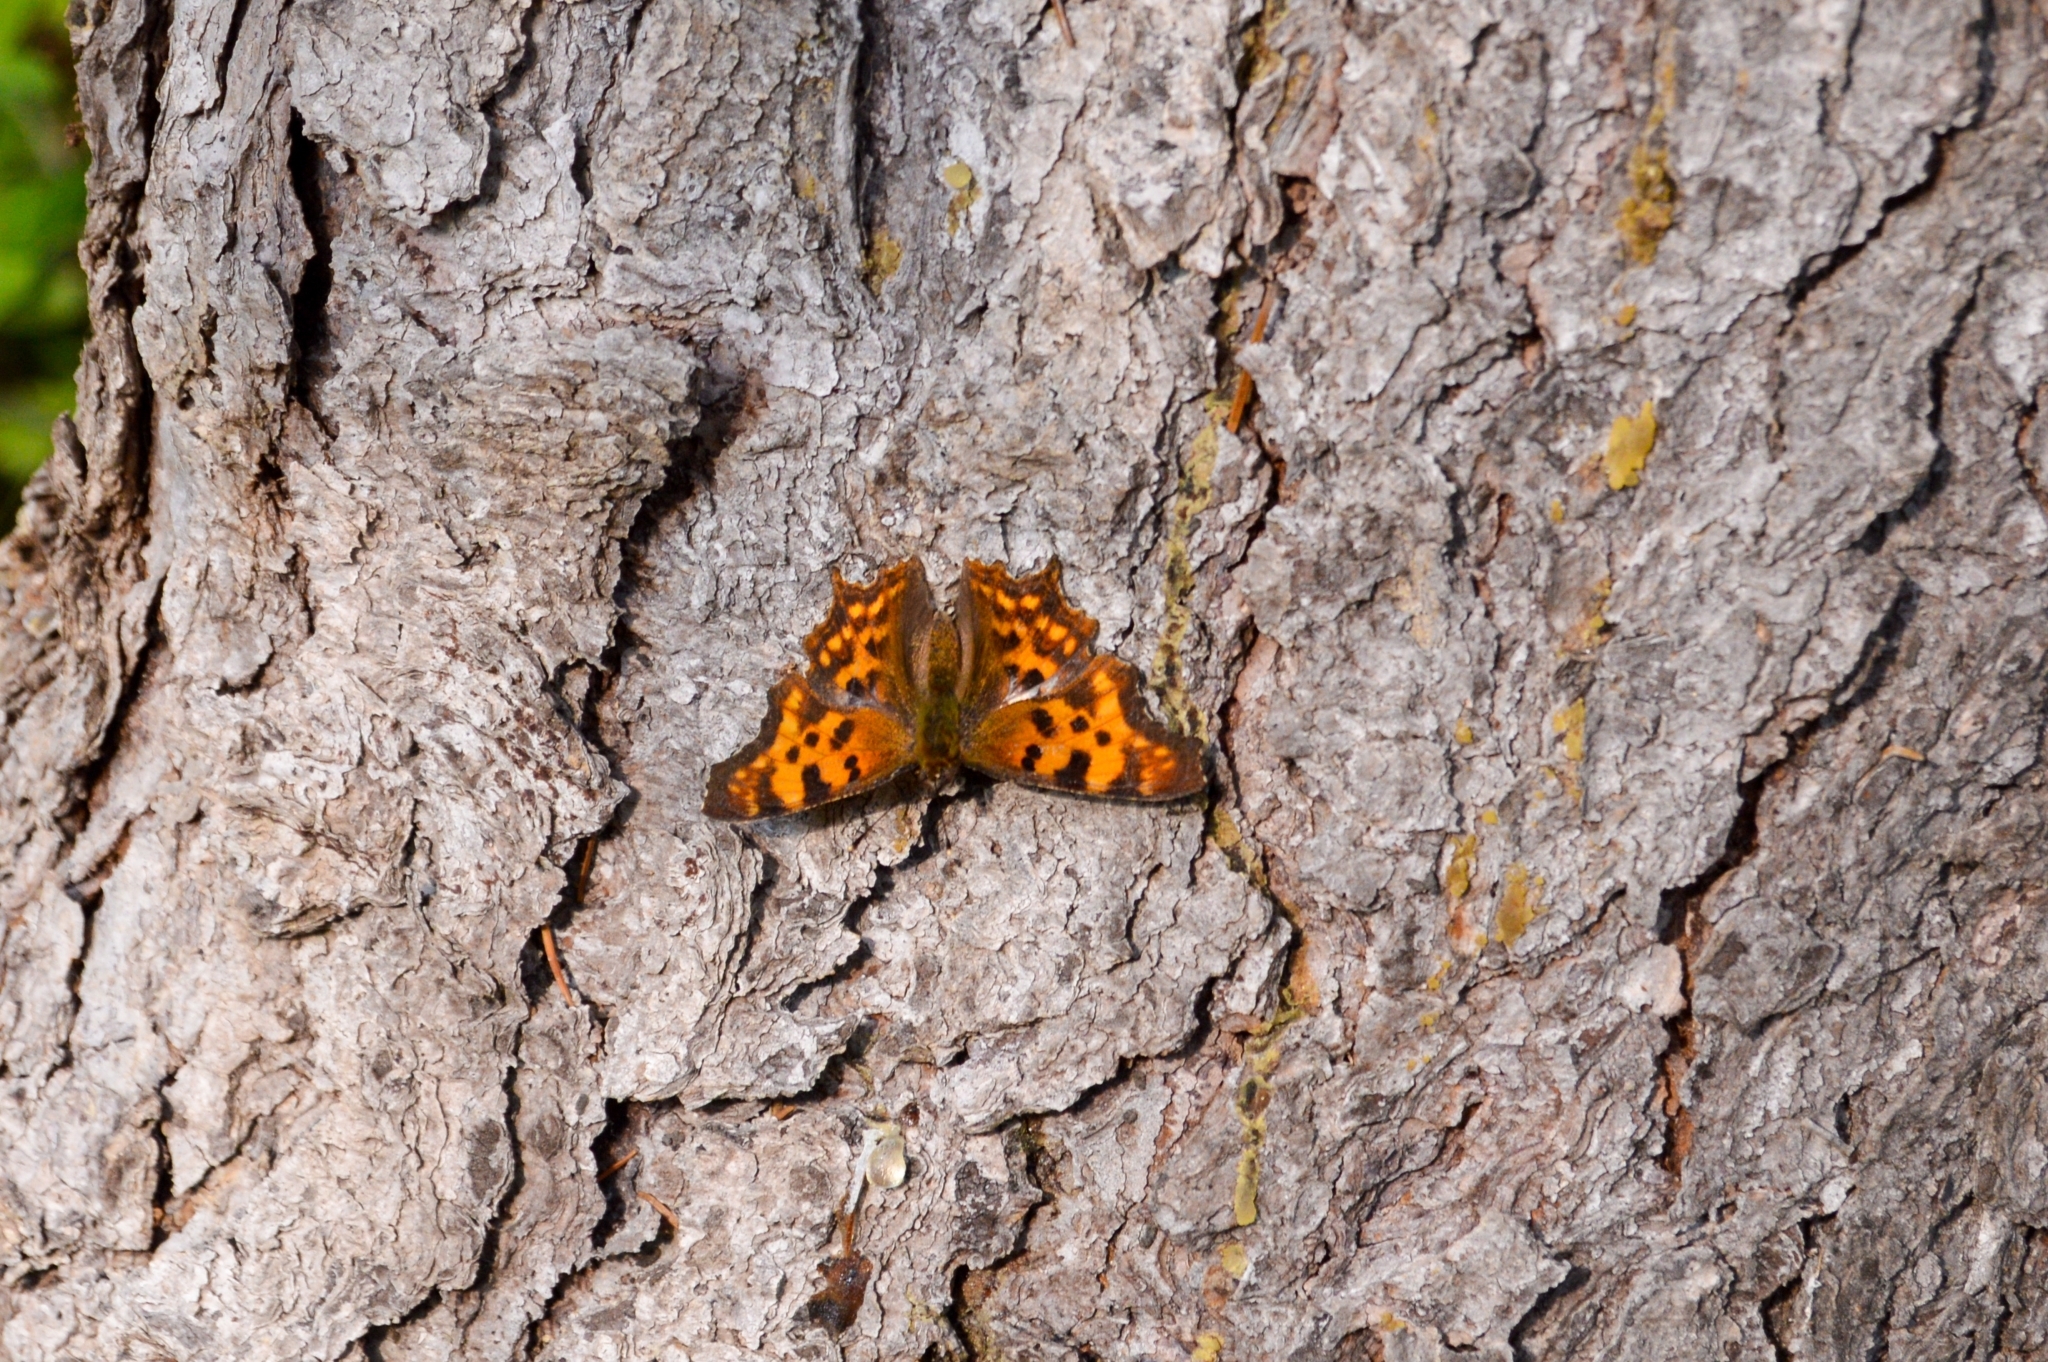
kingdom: Animalia
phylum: Arthropoda
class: Insecta
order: Lepidoptera
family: Nymphalidae
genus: Polygonia
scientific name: Polygonia c-album
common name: Comma
